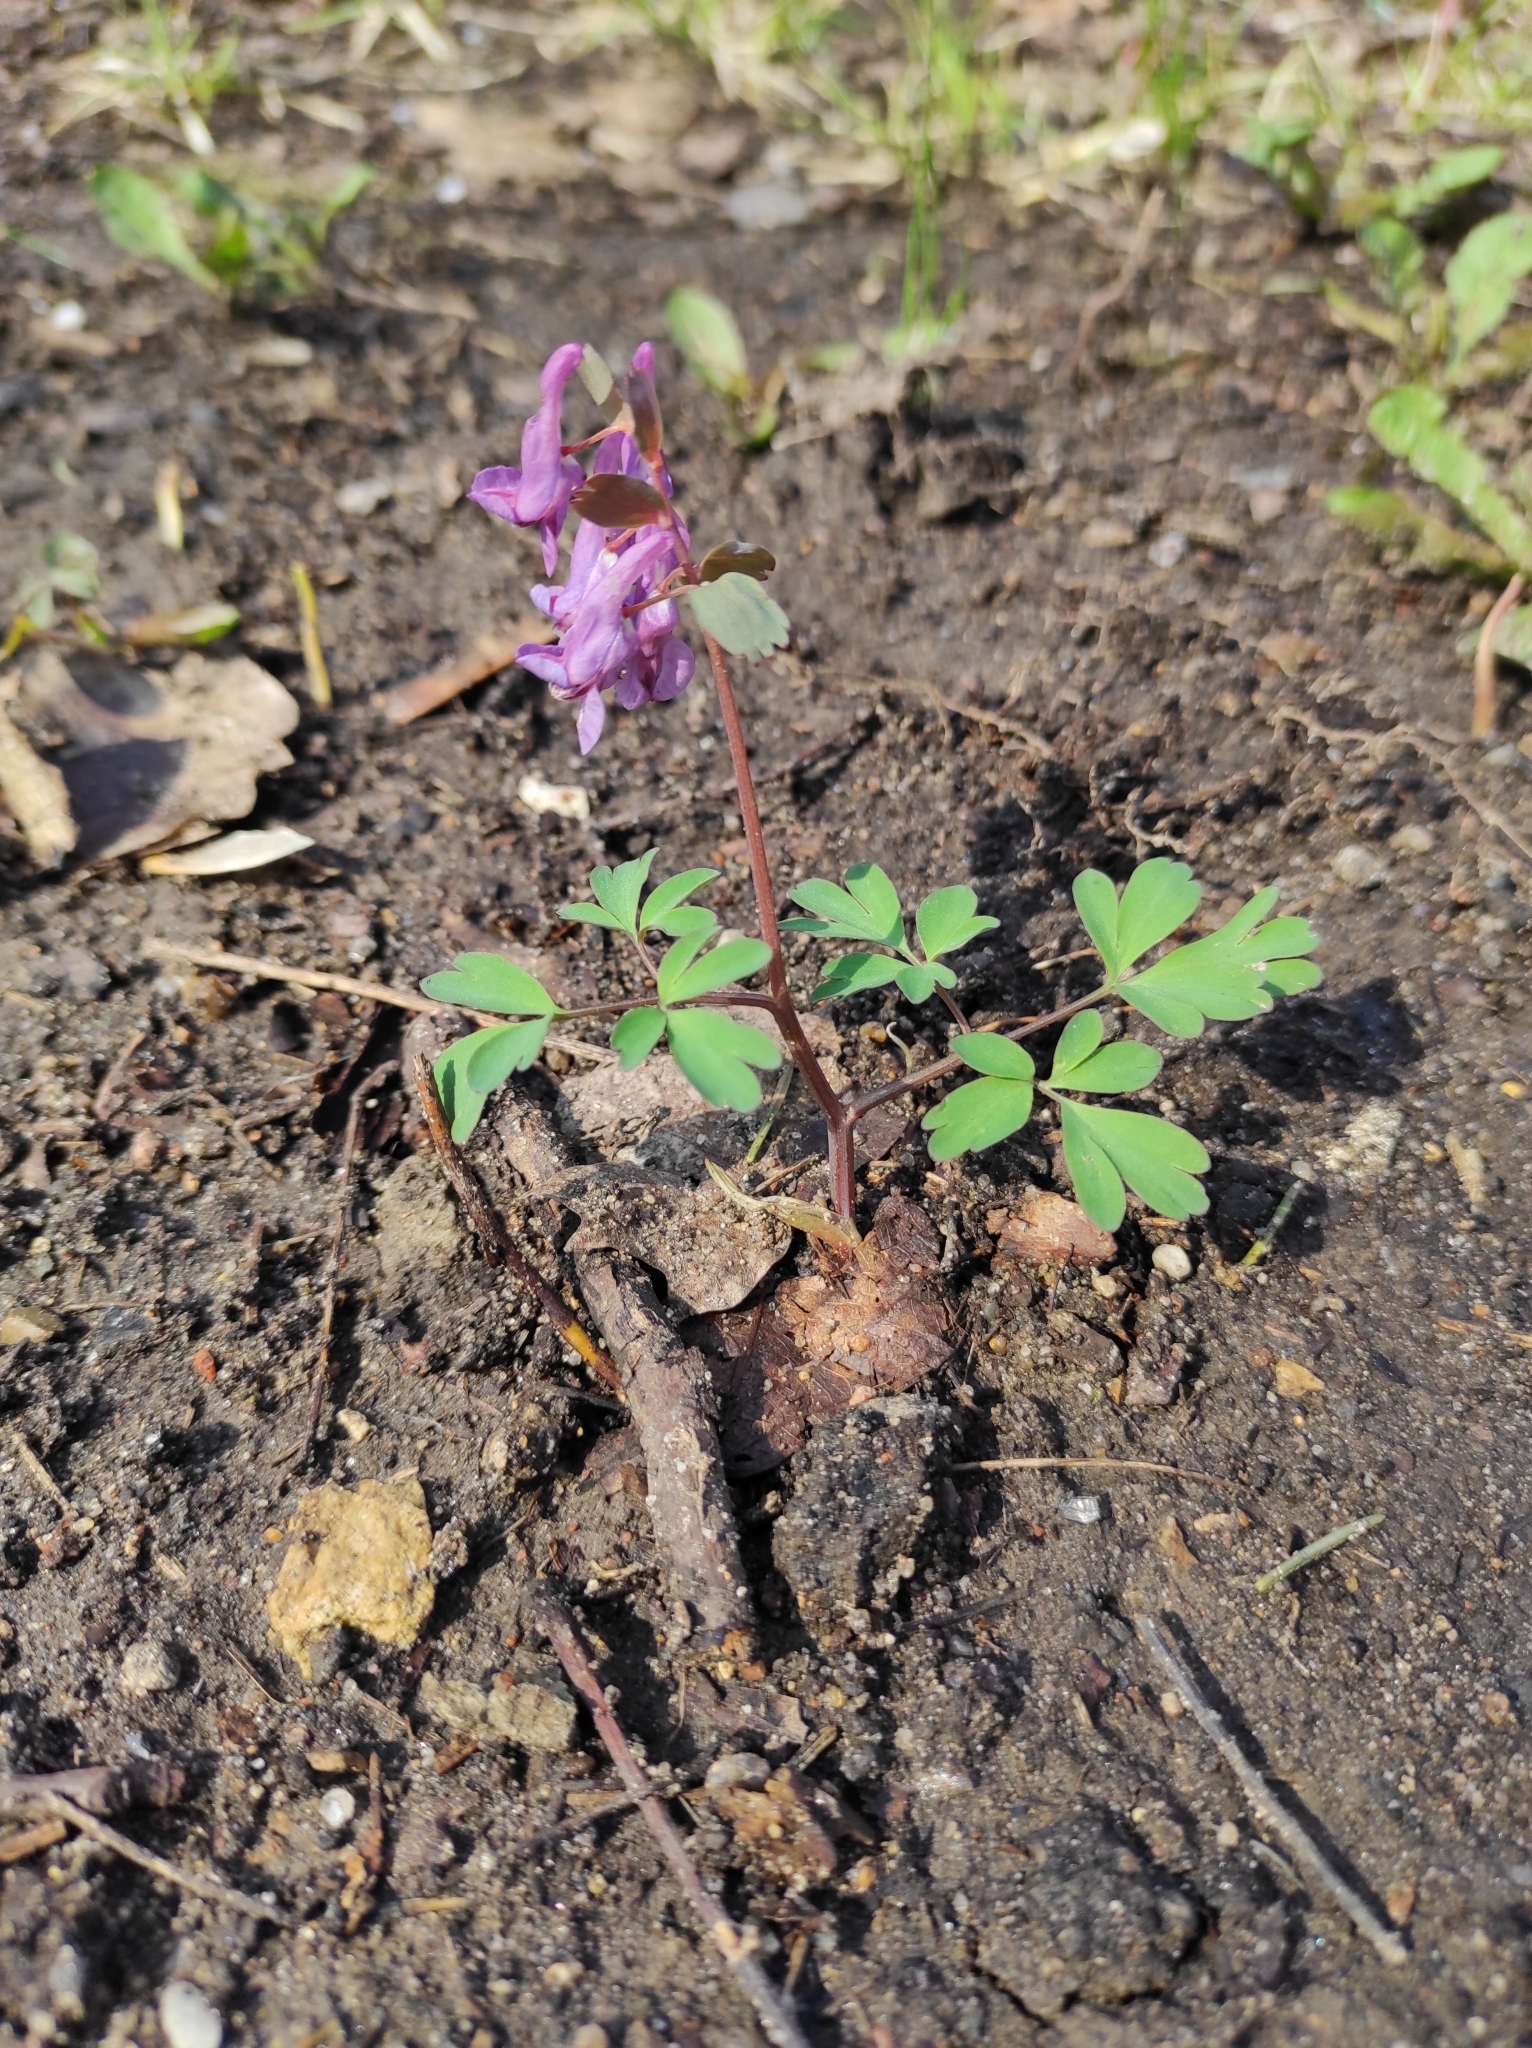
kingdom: Plantae
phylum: Tracheophyta
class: Magnoliopsida
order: Ranunculales
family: Papaveraceae
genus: Corydalis
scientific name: Corydalis solida
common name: Bird-in-a-bush
